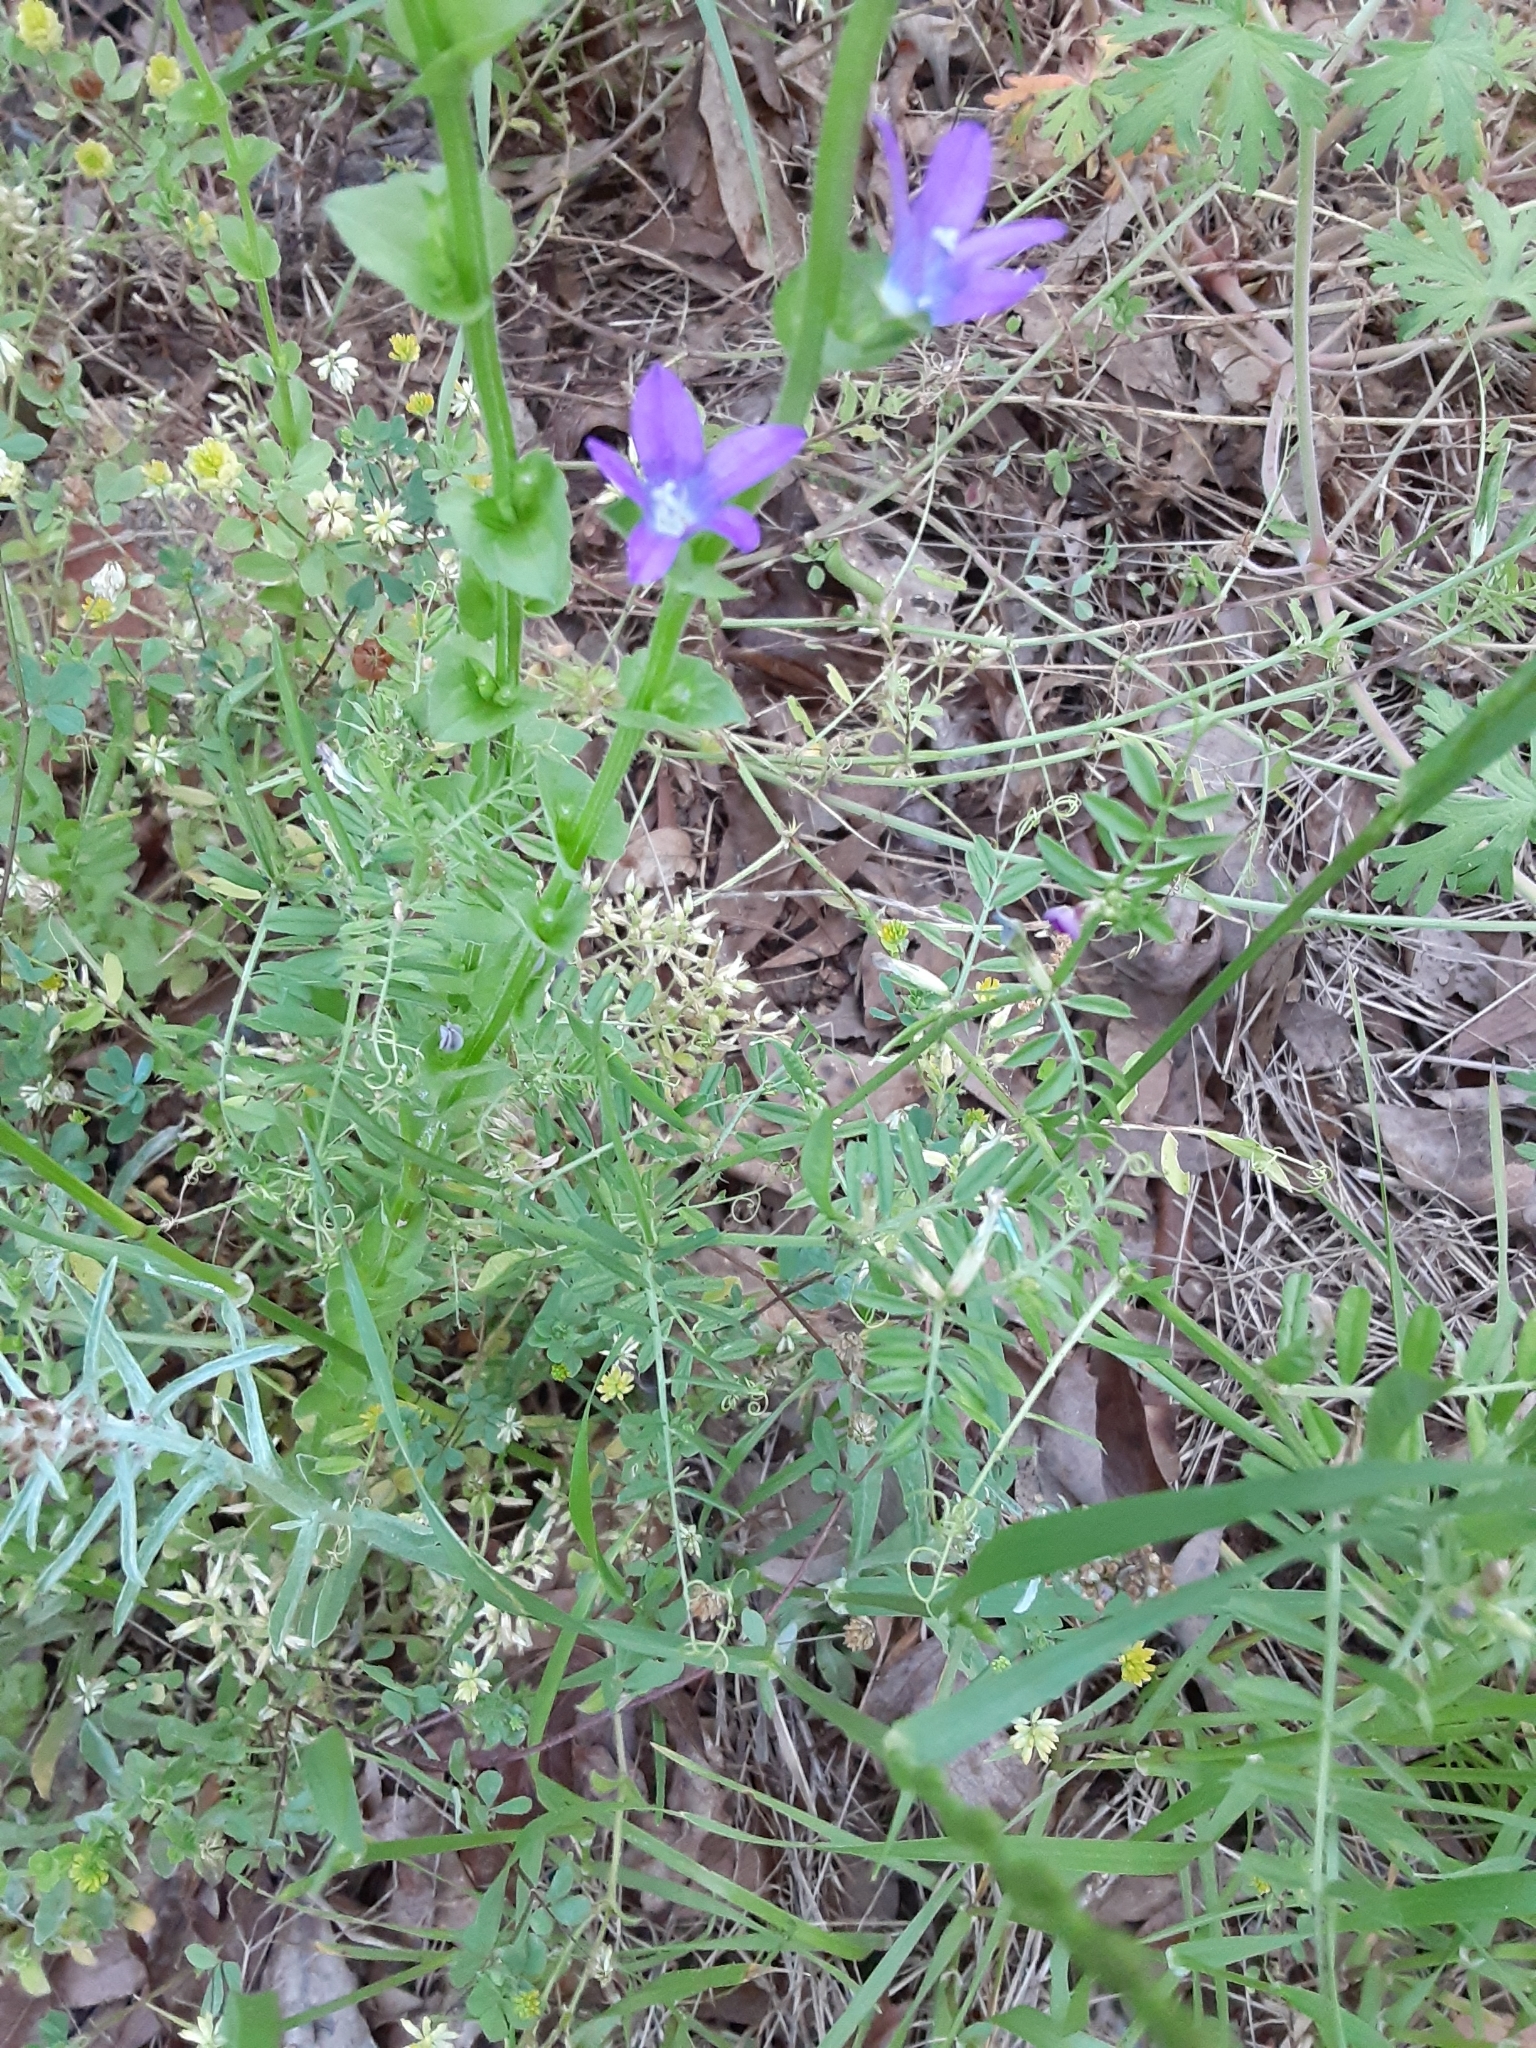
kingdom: Plantae
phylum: Tracheophyta
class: Magnoliopsida
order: Asterales
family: Campanulaceae
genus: Triodanis
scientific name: Triodanis perfoliata
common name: Clasping venus' looking-glass
